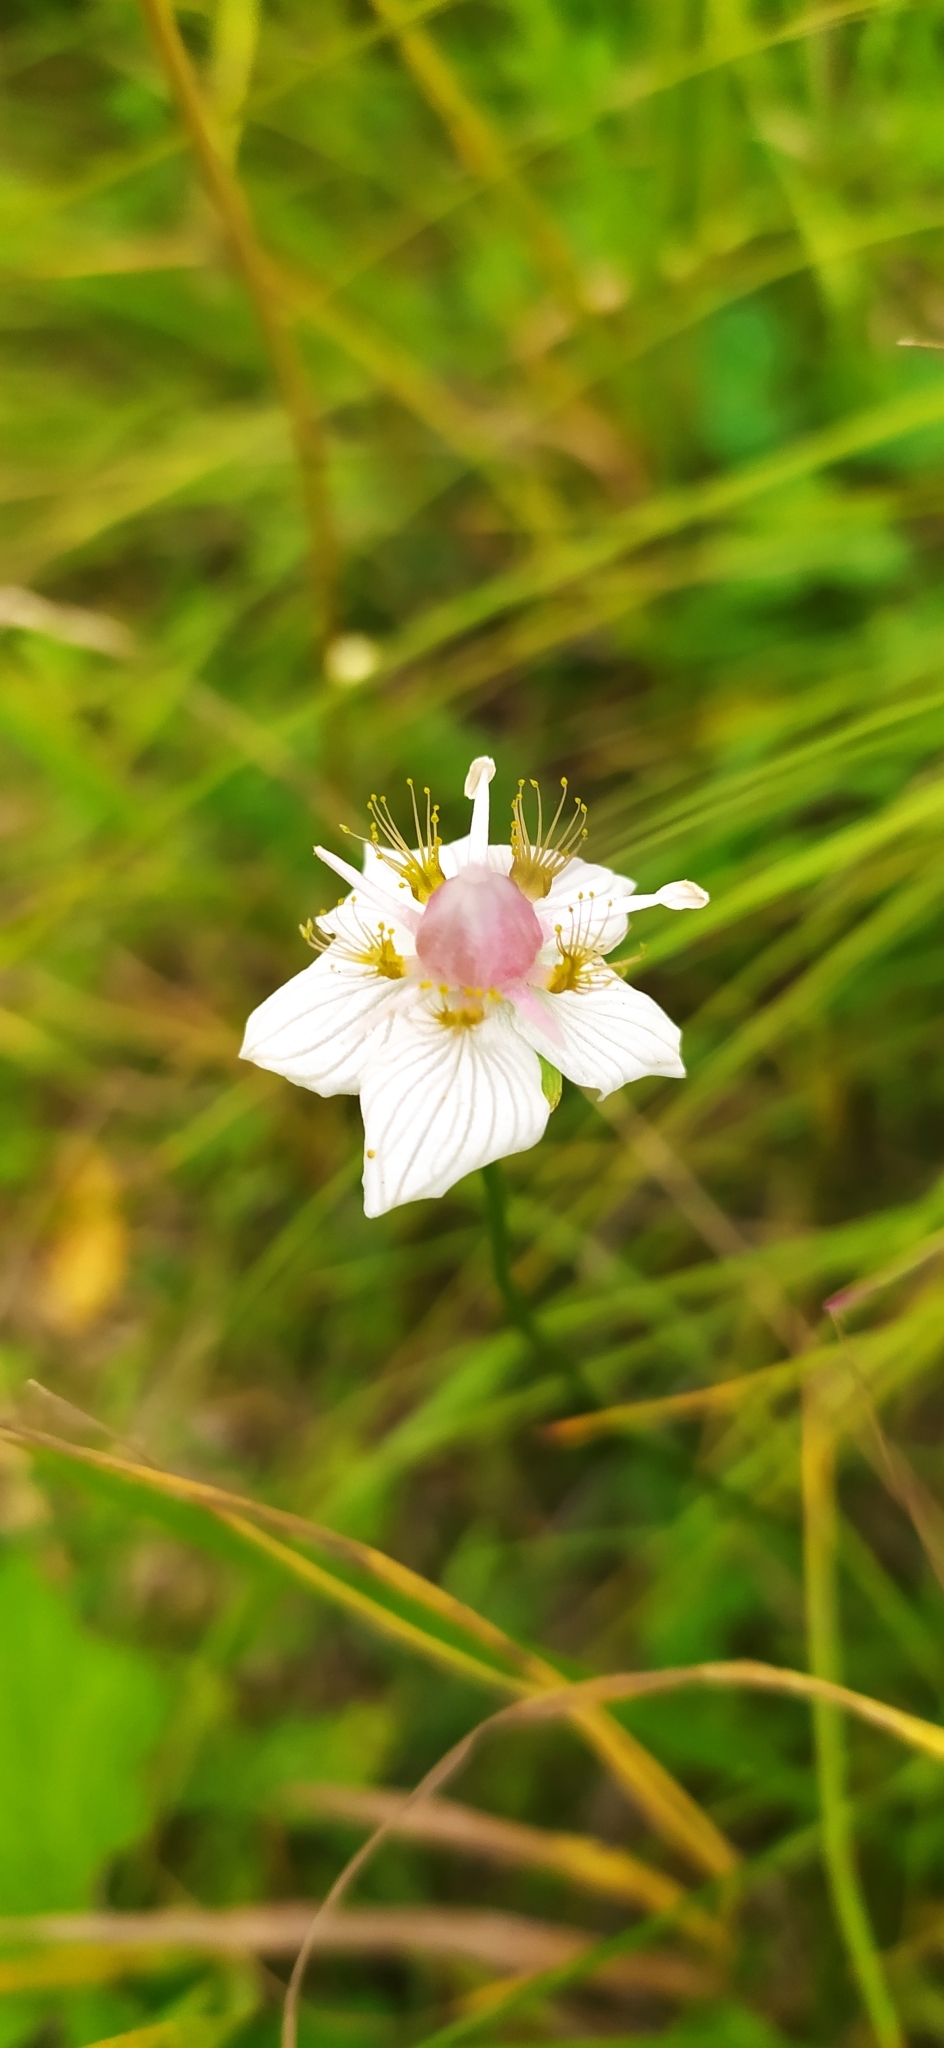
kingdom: Plantae
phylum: Tracheophyta
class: Magnoliopsida
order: Celastrales
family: Parnassiaceae
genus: Parnassia
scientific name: Parnassia palustris
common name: Grass-of-parnassus
